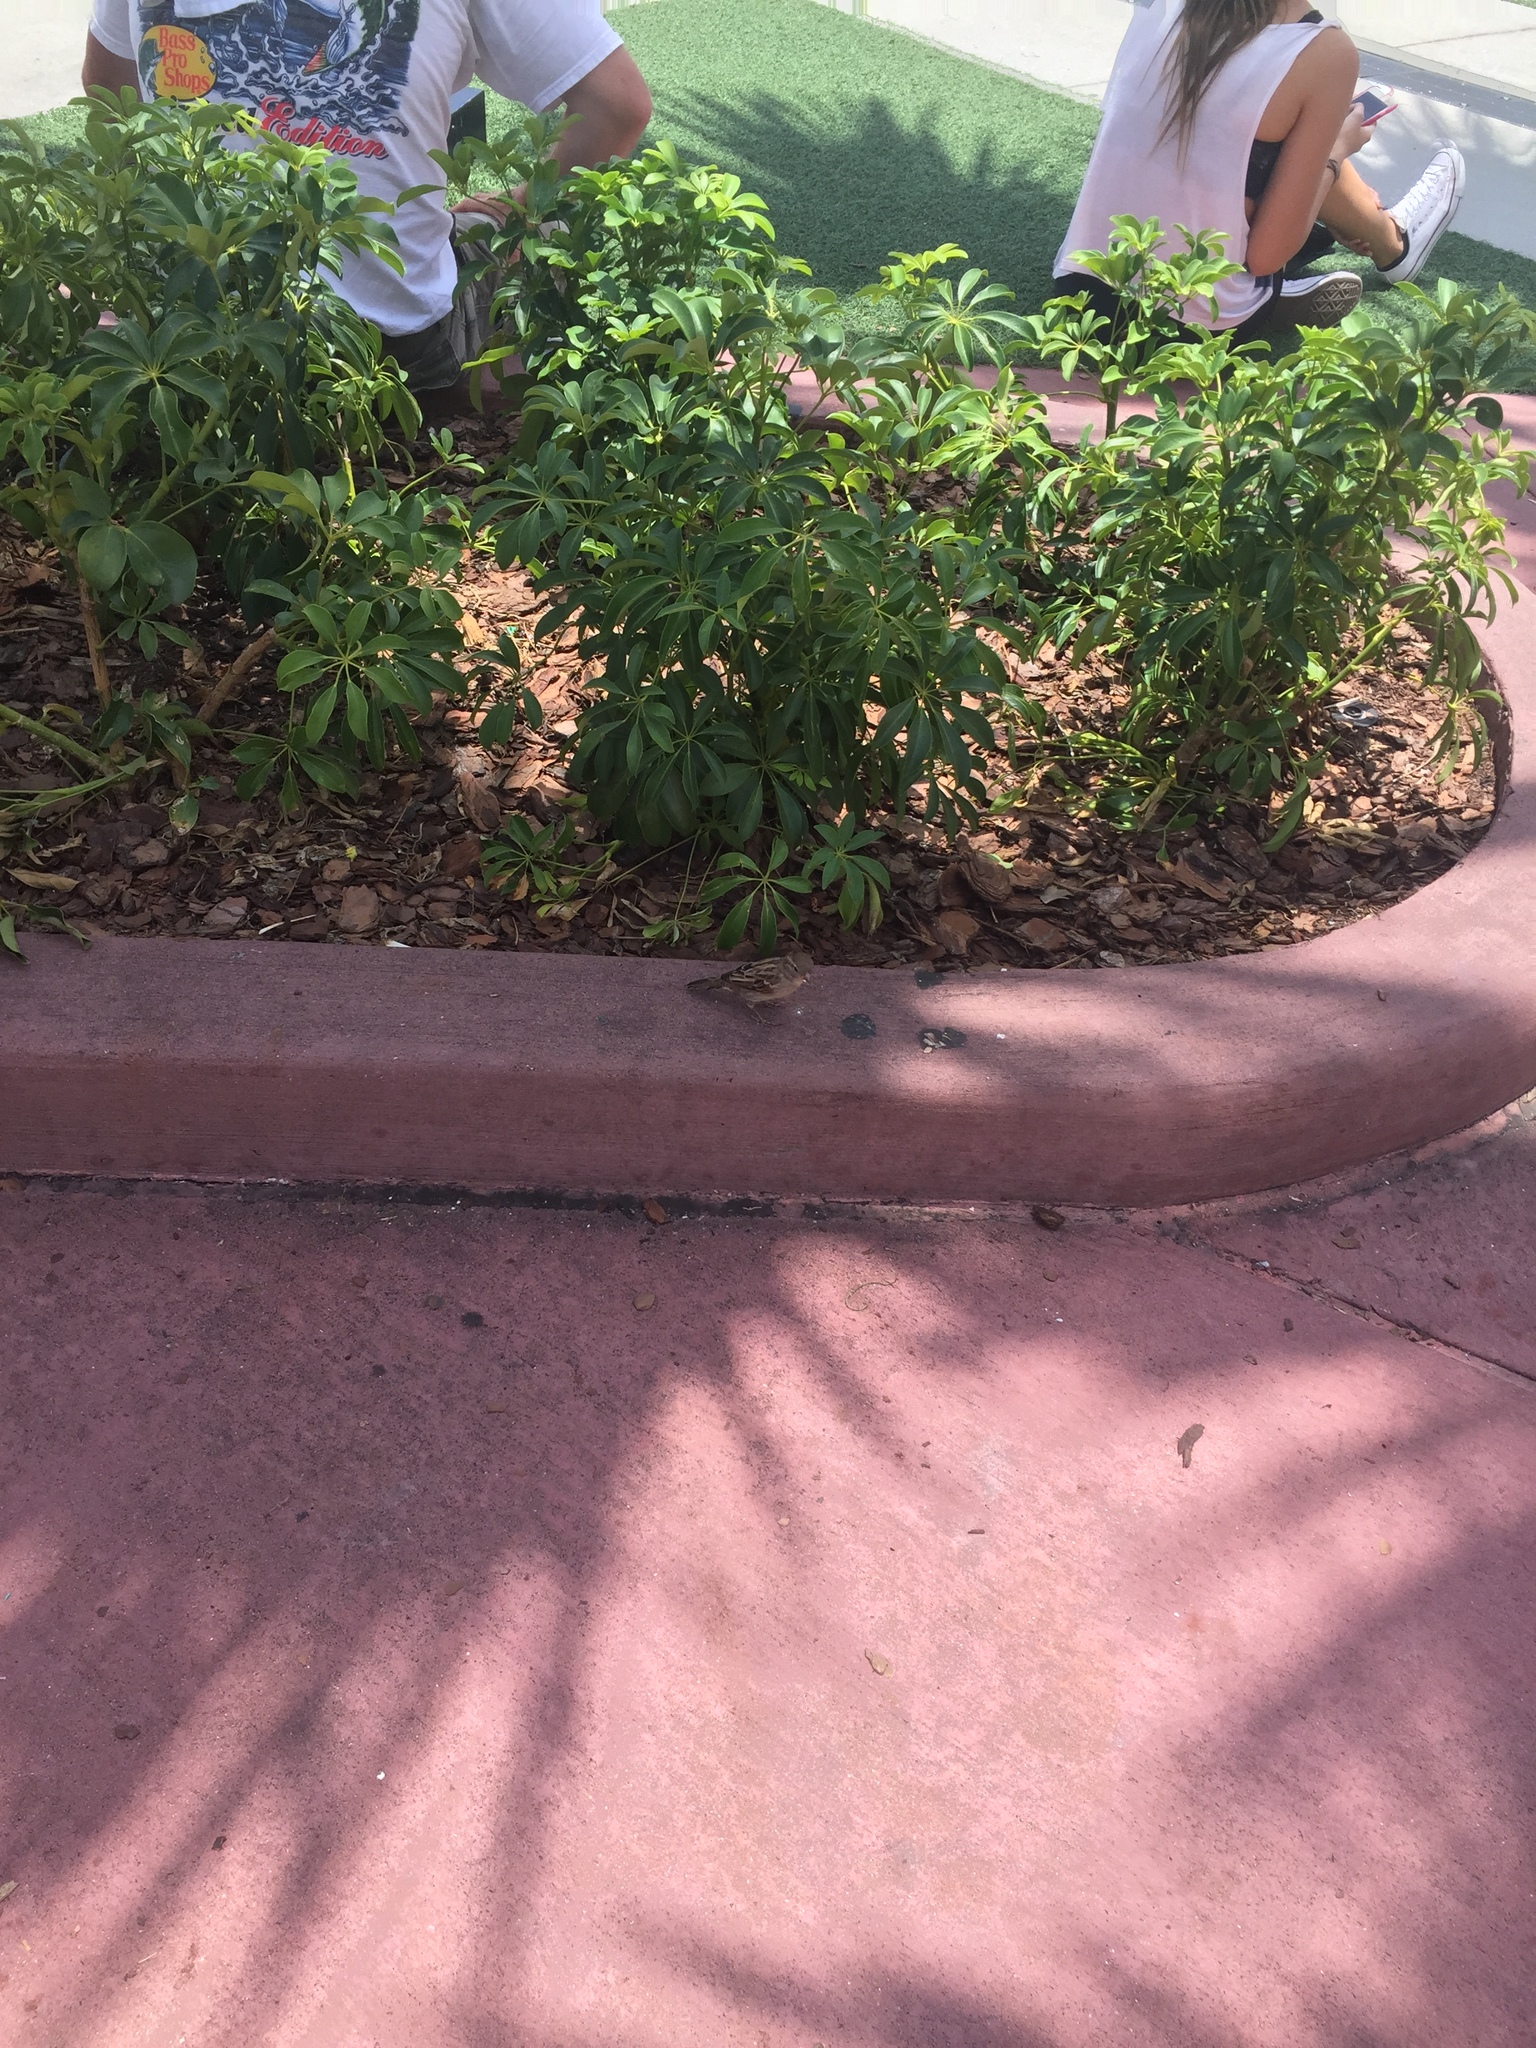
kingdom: Animalia
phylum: Chordata
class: Aves
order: Passeriformes
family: Passeridae
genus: Passer
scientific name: Passer domesticus
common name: House sparrow
